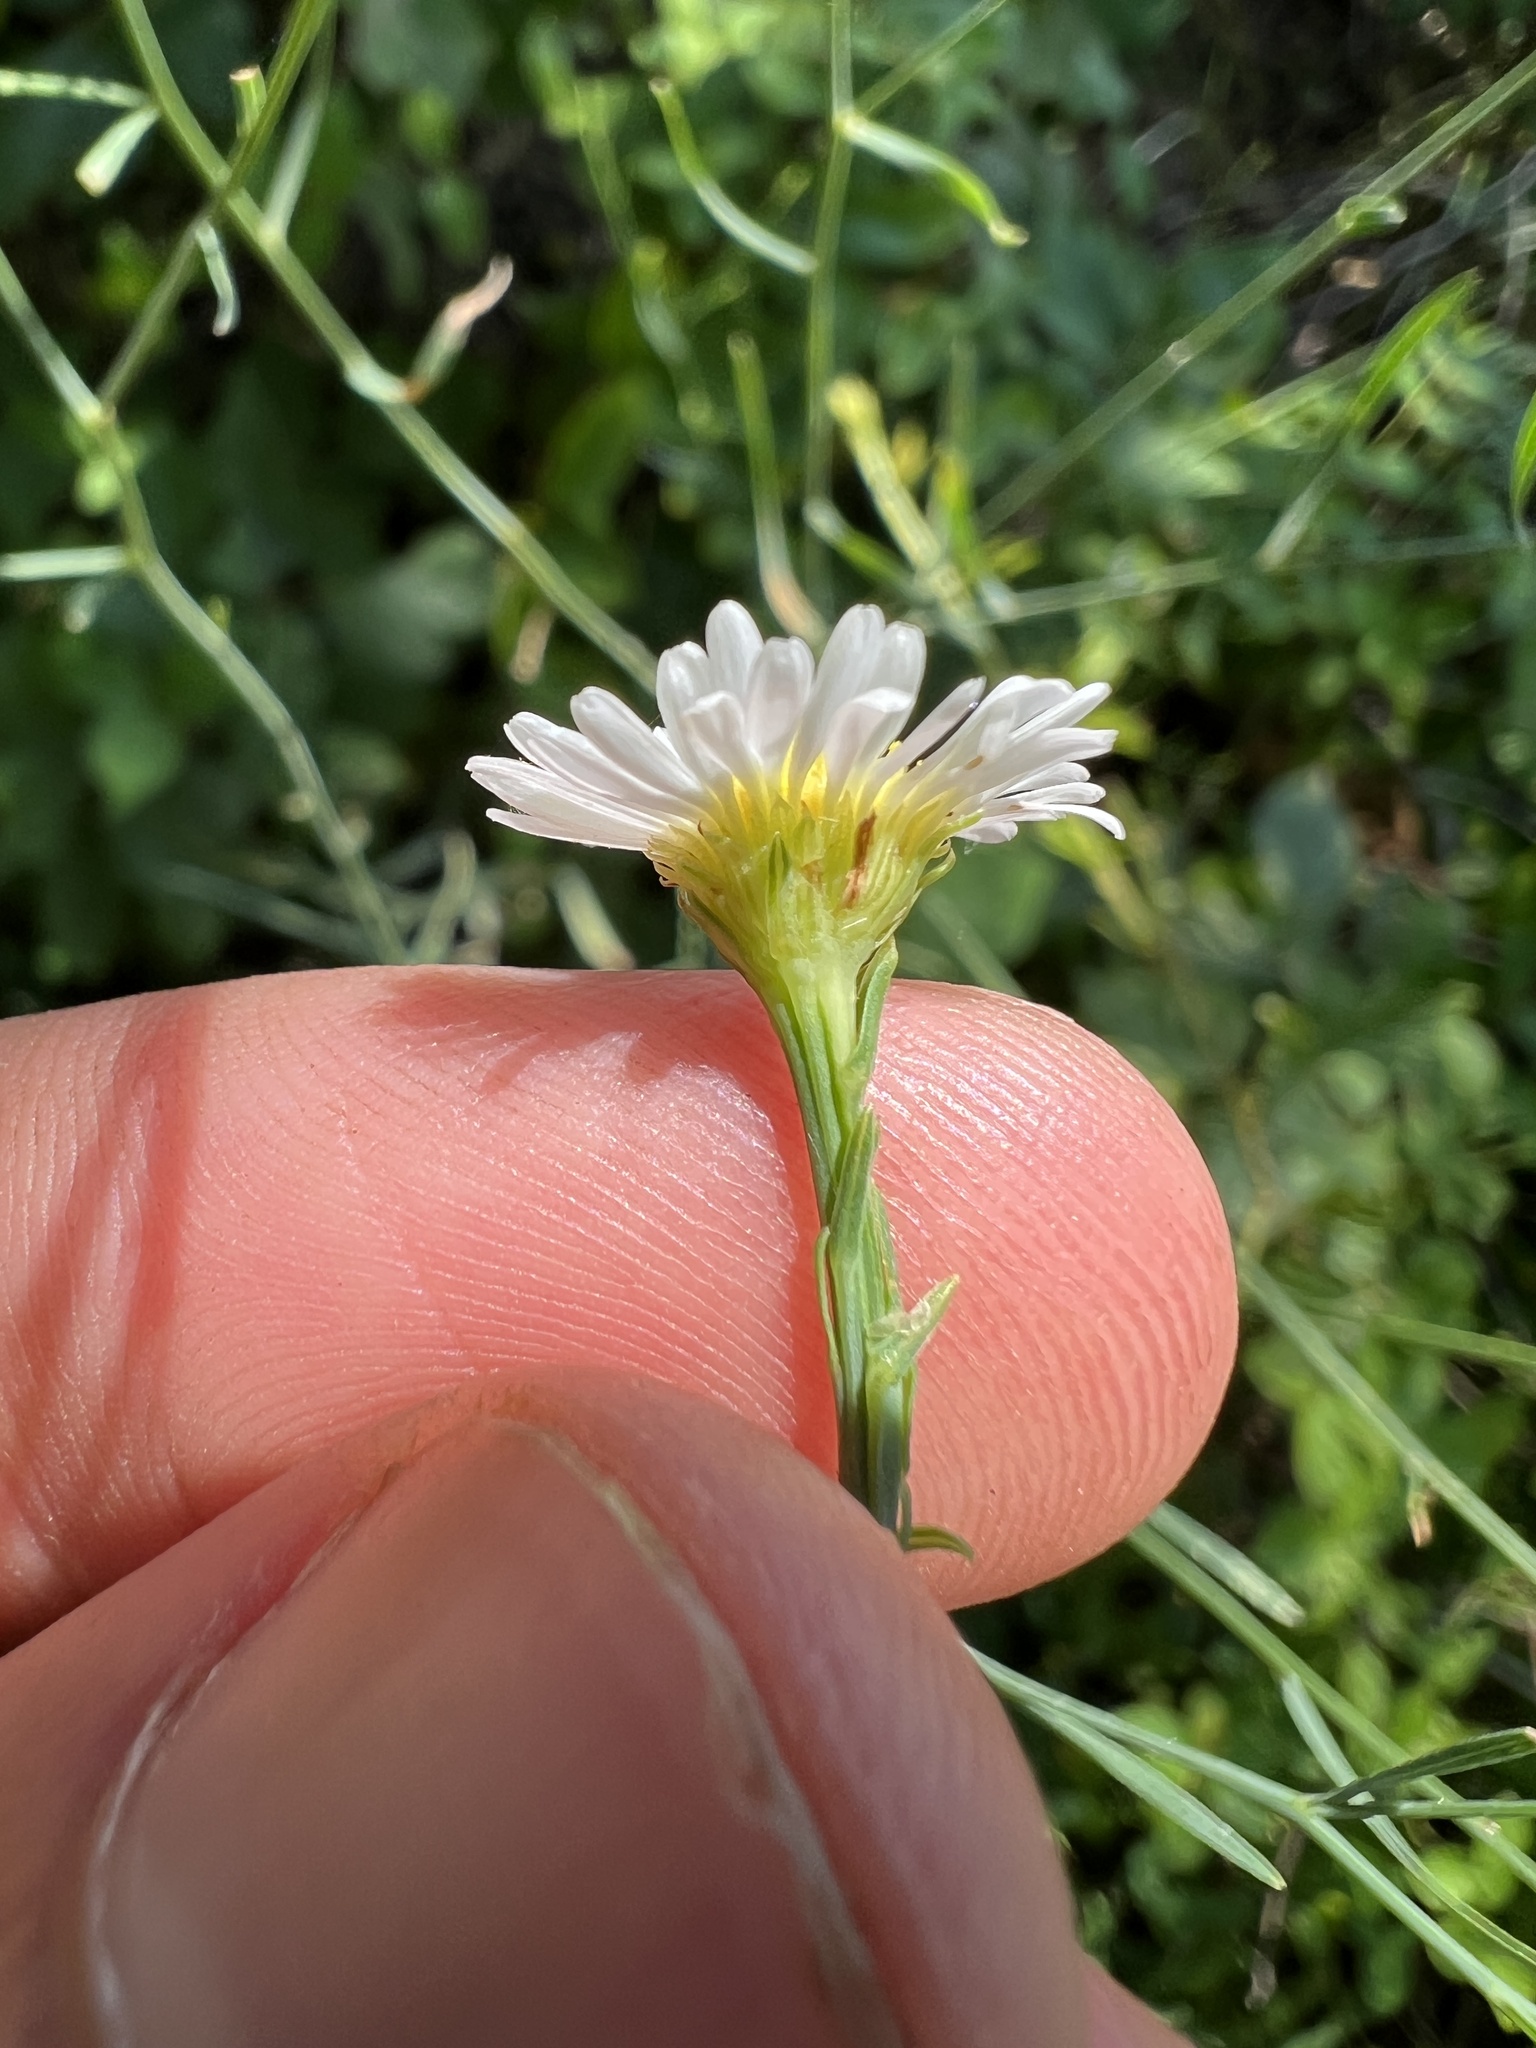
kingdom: Plantae
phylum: Tracheophyta
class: Magnoliopsida
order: Asterales
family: Asteraceae
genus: Boltonia
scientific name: Boltonia diffusa
